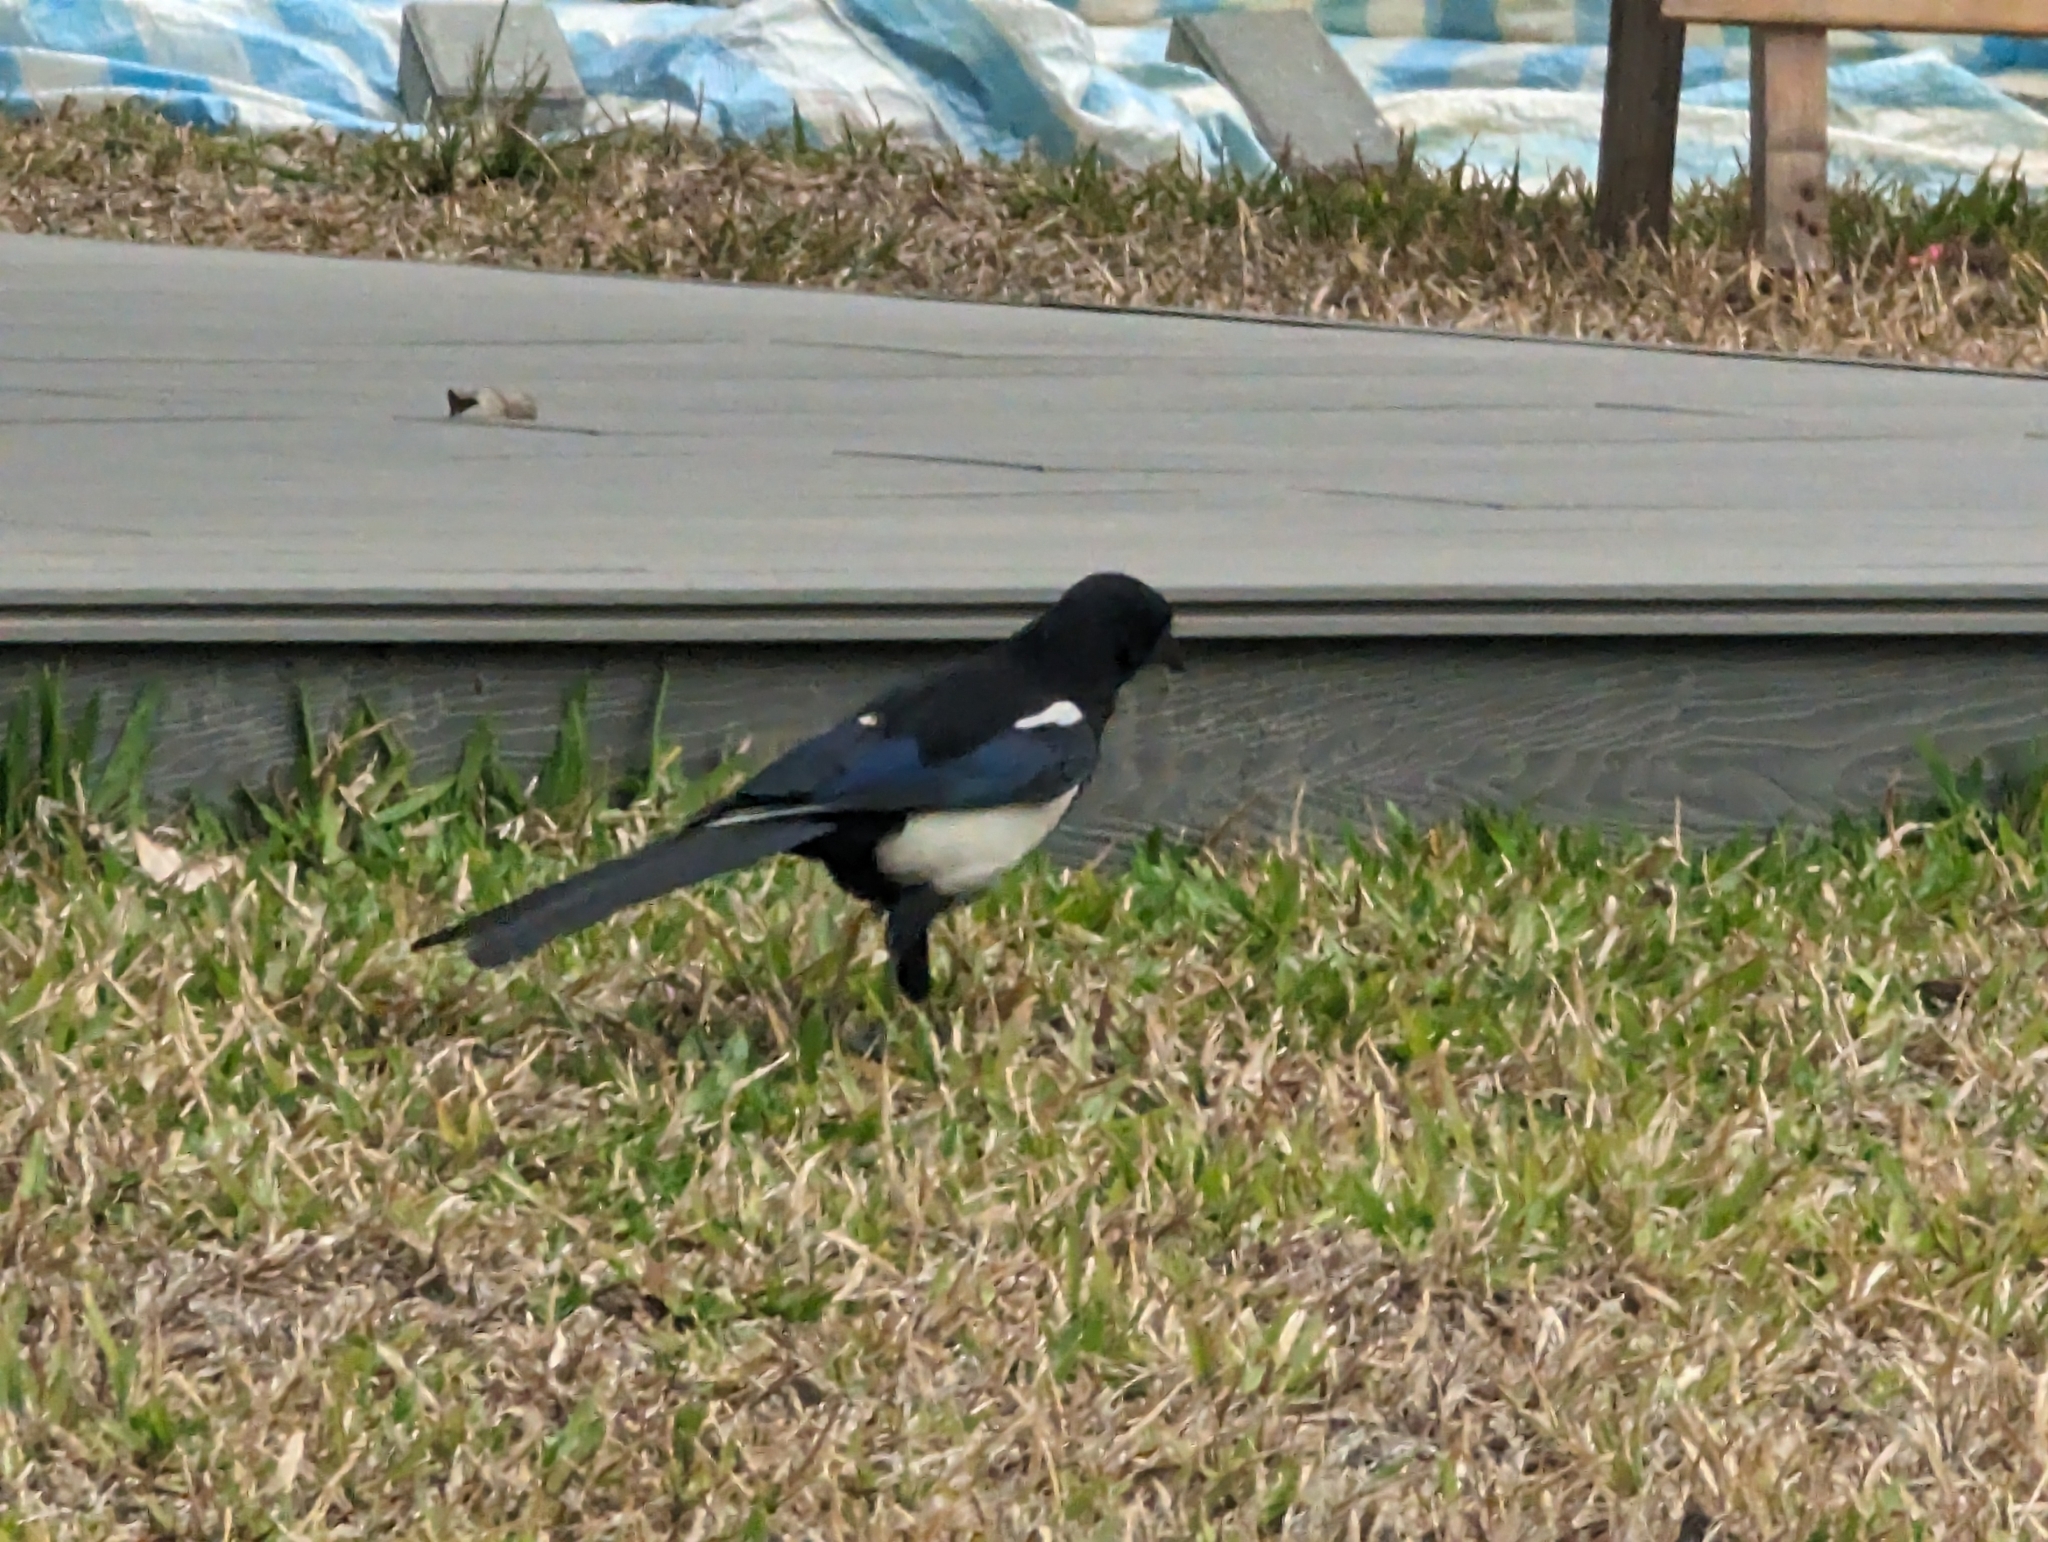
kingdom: Animalia
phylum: Chordata
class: Aves
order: Passeriformes
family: Corvidae
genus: Pica
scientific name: Pica serica
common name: Oriental magpie
